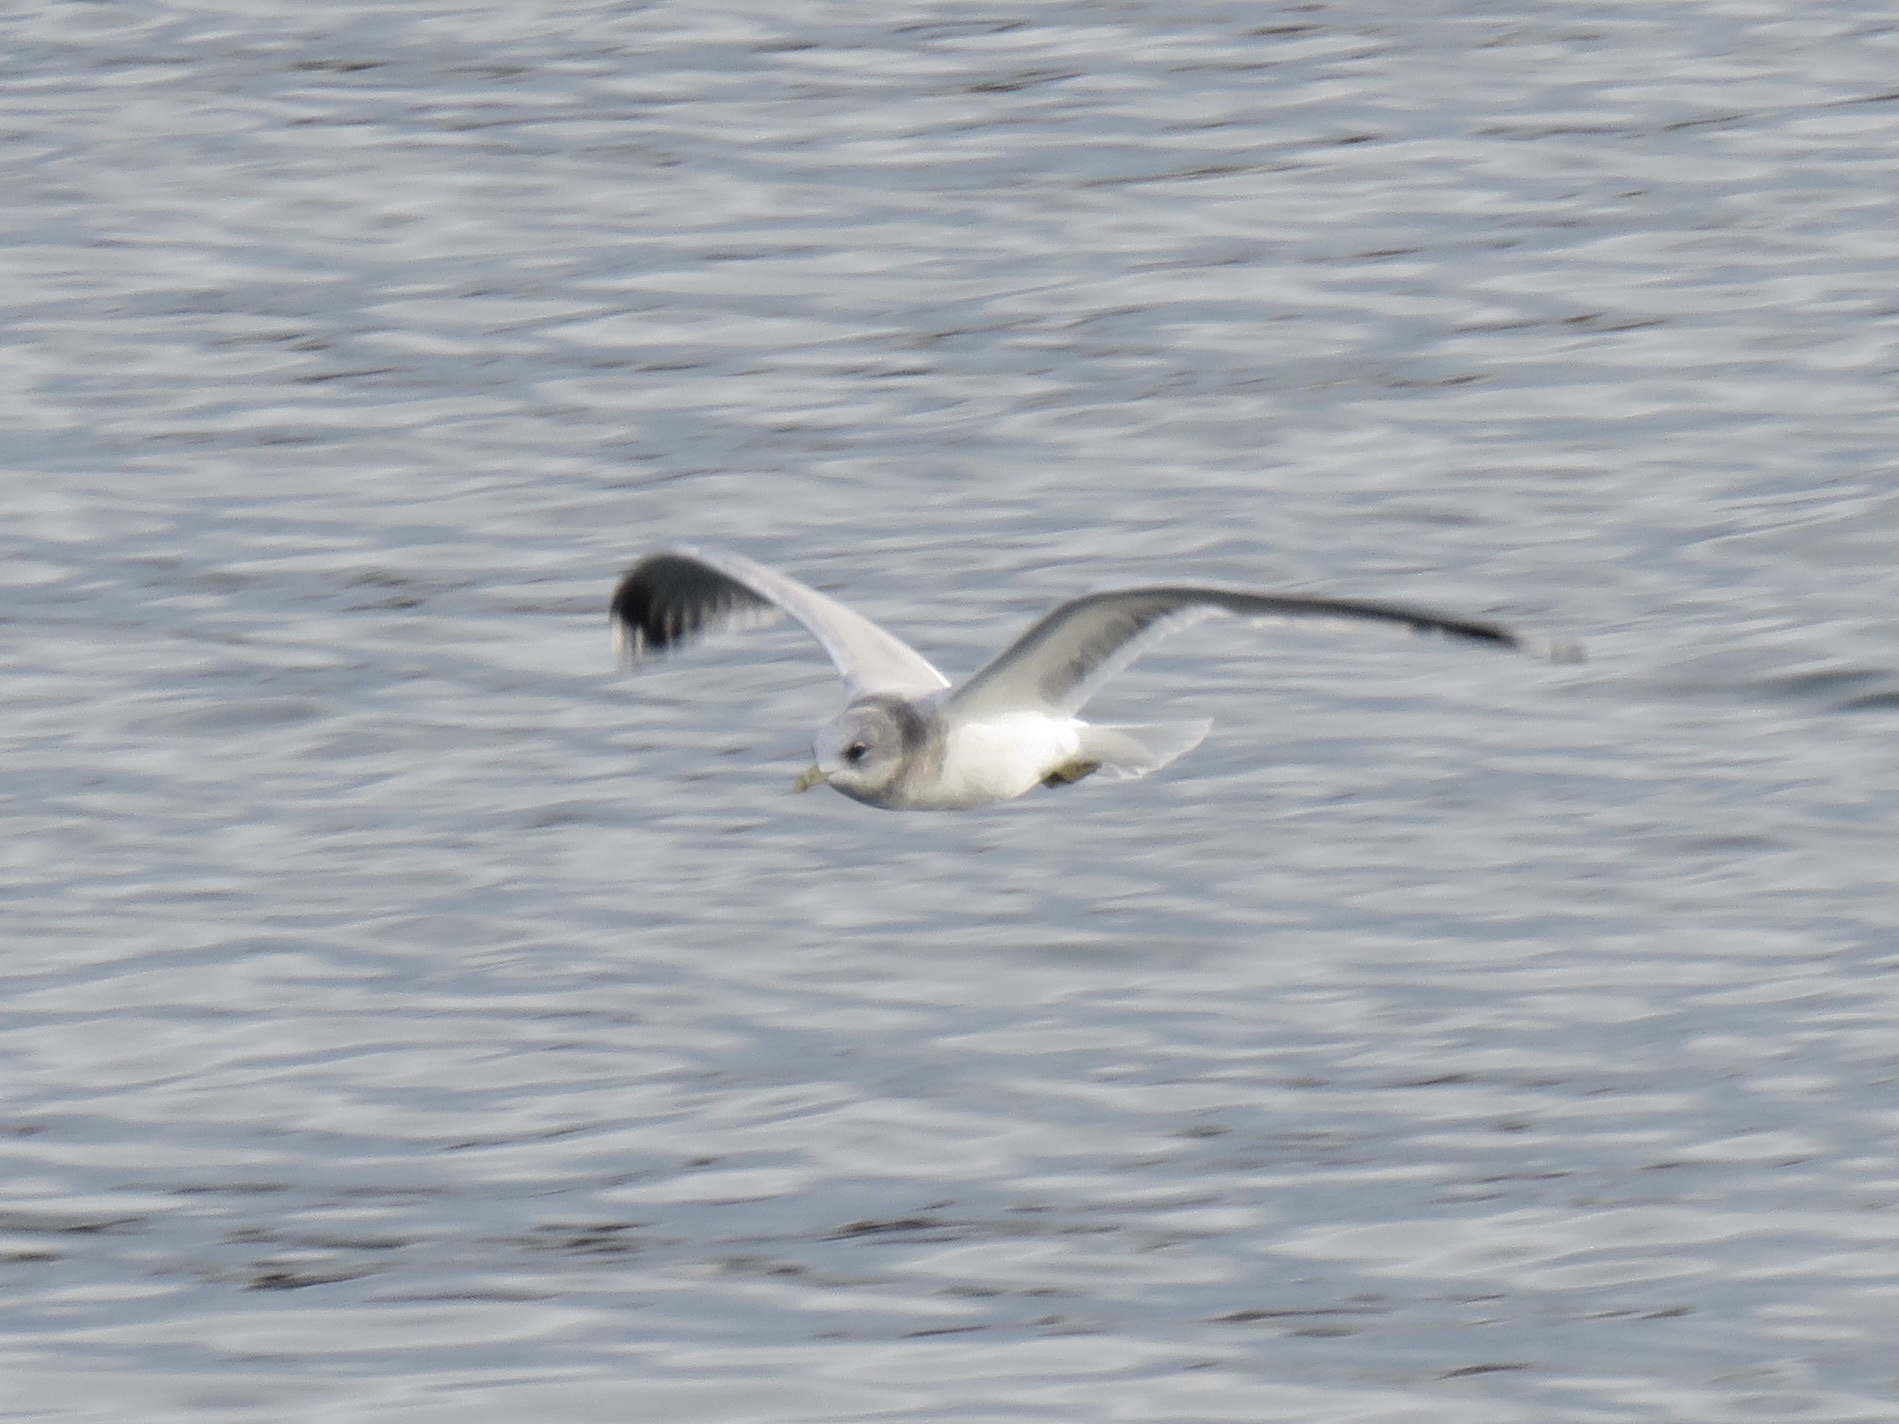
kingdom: Animalia
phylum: Chordata
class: Aves
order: Charadriiformes
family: Laridae
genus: Larus
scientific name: Larus brachyrhynchus
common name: Short-billed gull
